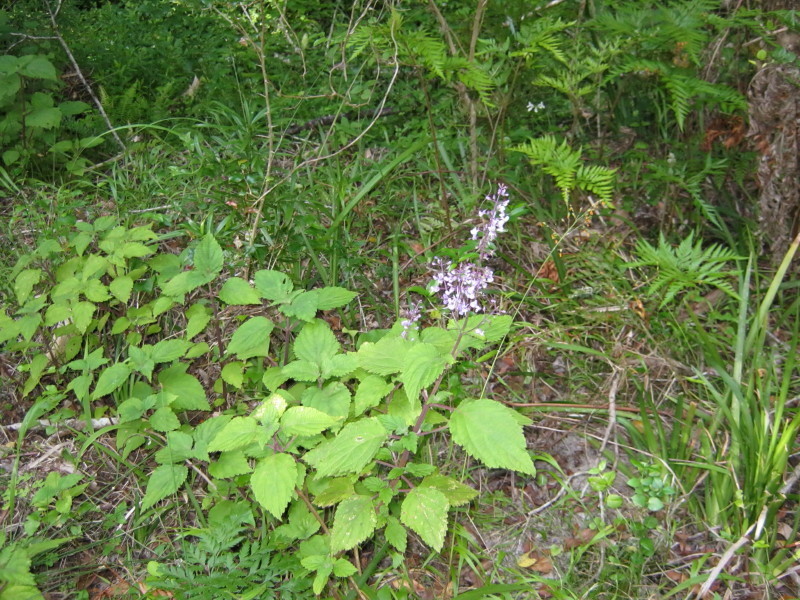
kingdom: Plantae
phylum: Tracheophyta
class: Magnoliopsida
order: Lamiales
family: Lamiaceae
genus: Plectranthus
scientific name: Plectranthus fruticosus
